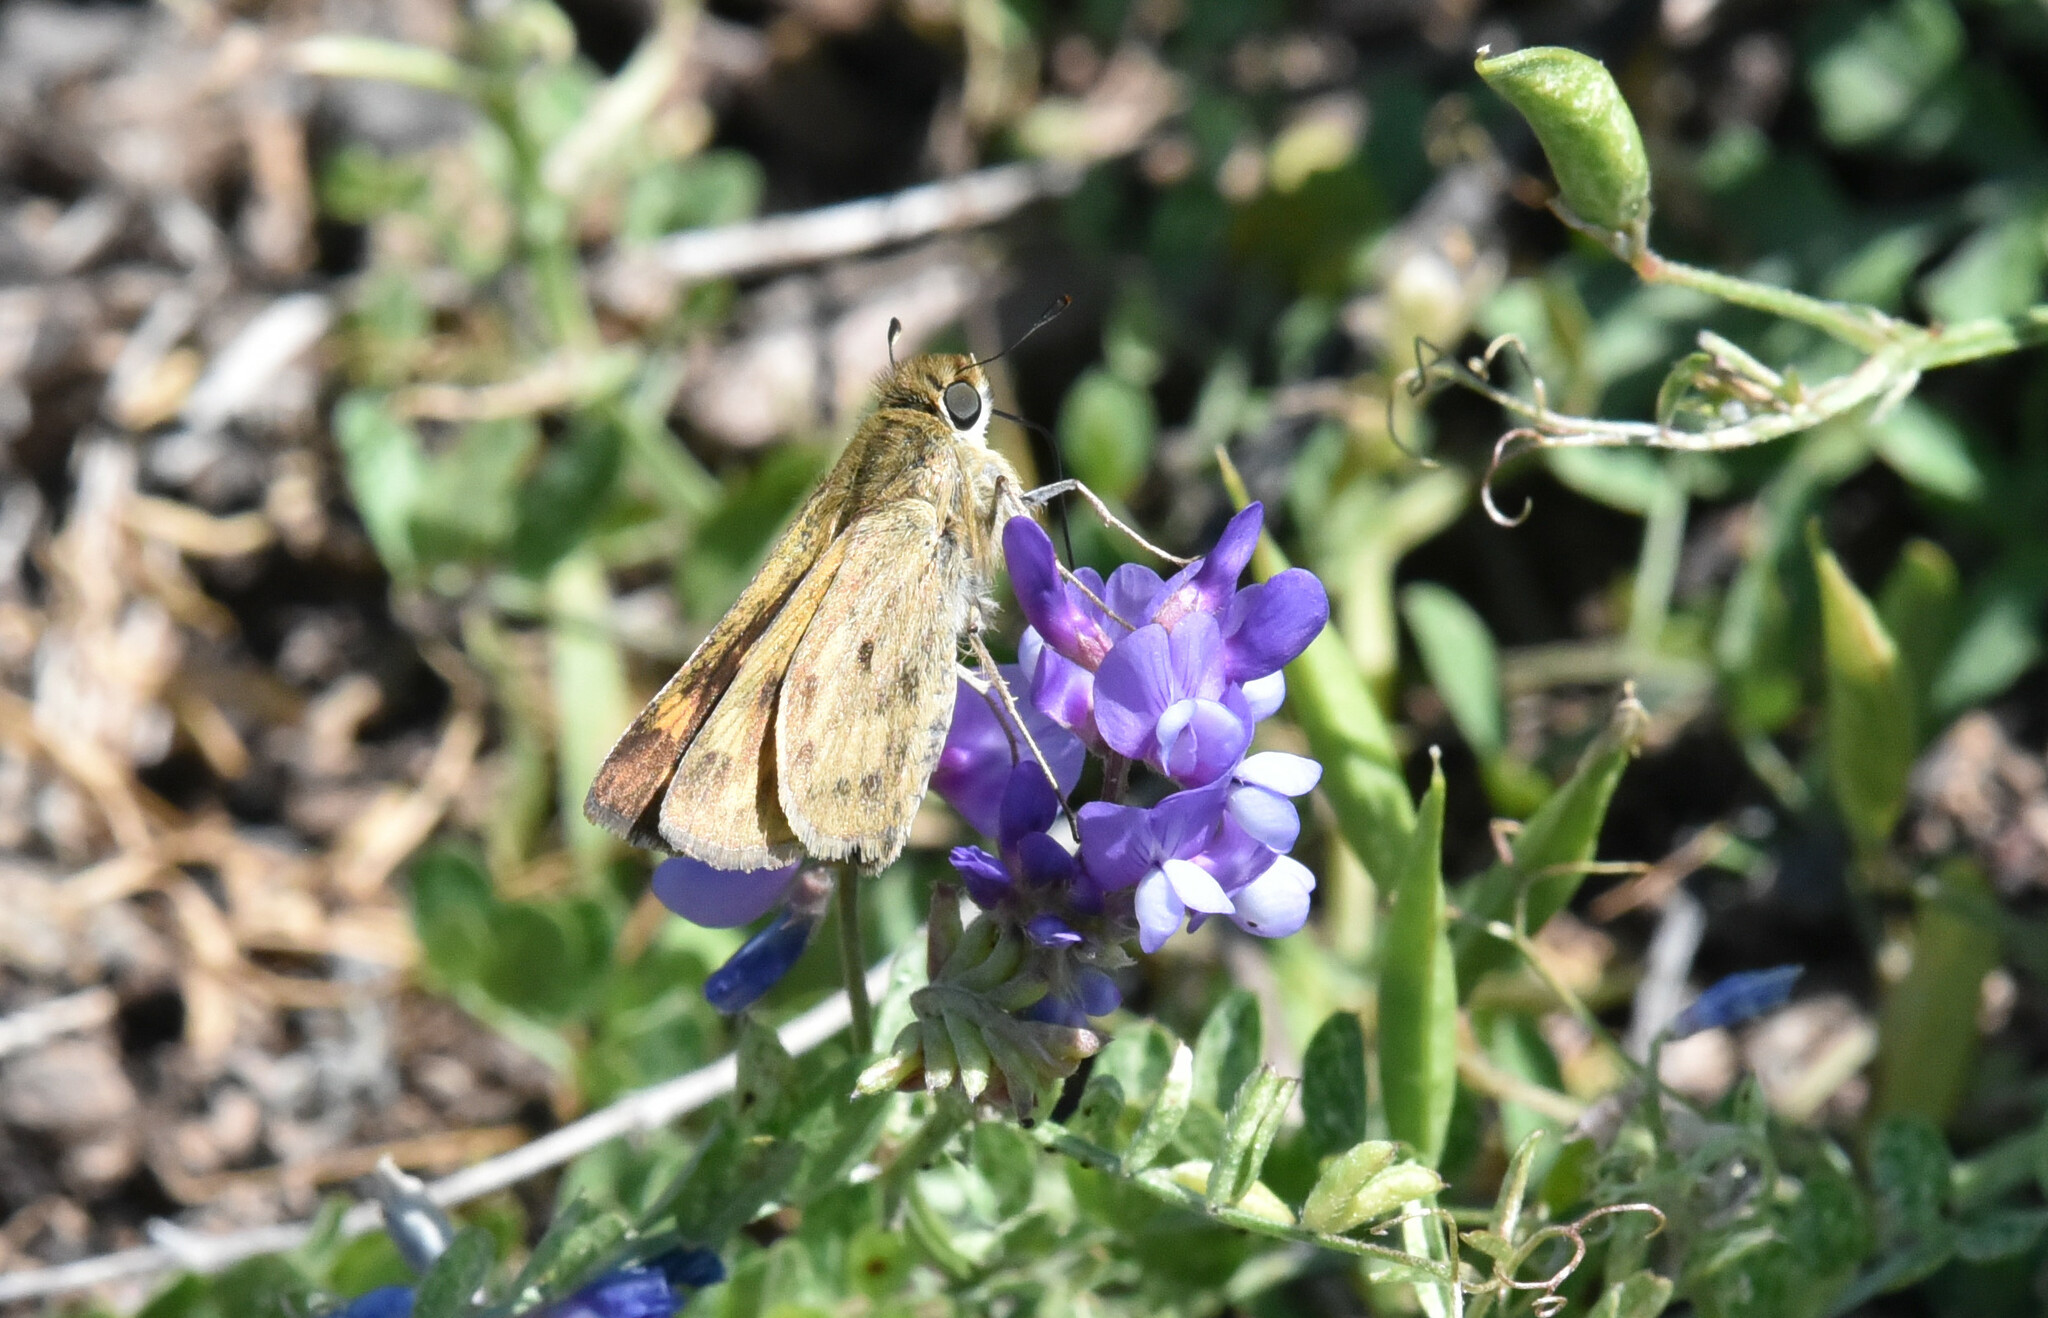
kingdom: Animalia
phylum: Arthropoda
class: Insecta
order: Lepidoptera
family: Hesperiidae
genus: Hylephila
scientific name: Hylephila phyleus
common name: Fiery skipper
